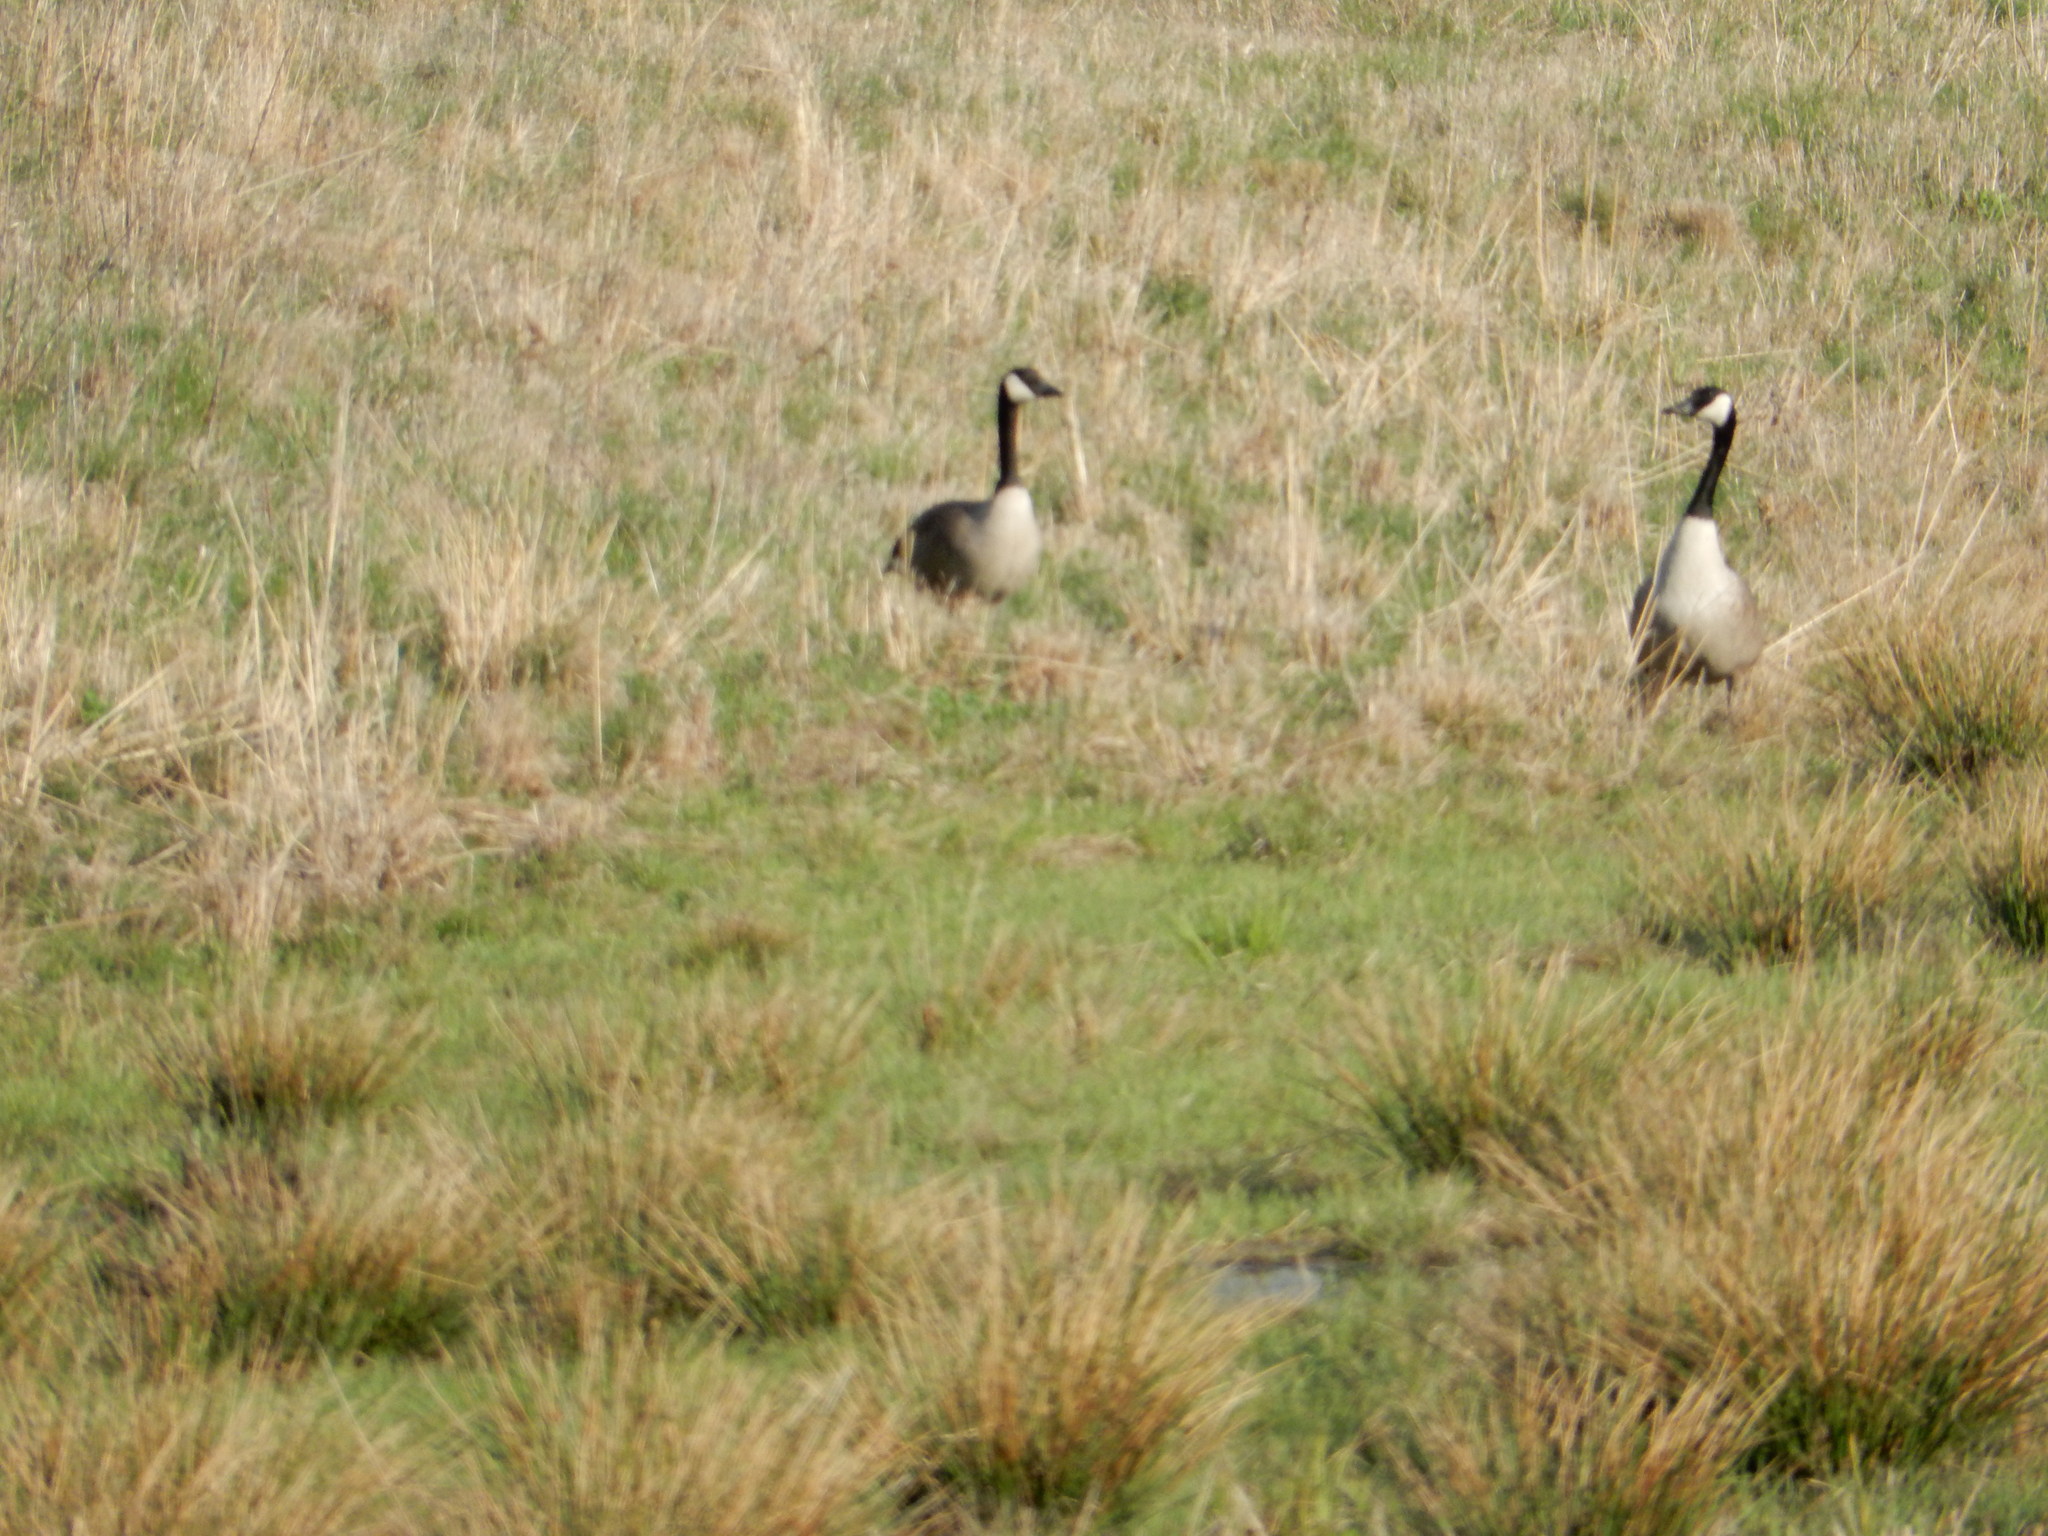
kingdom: Animalia
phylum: Chordata
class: Aves
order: Anseriformes
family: Anatidae
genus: Branta
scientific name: Branta canadensis
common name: Canada goose
